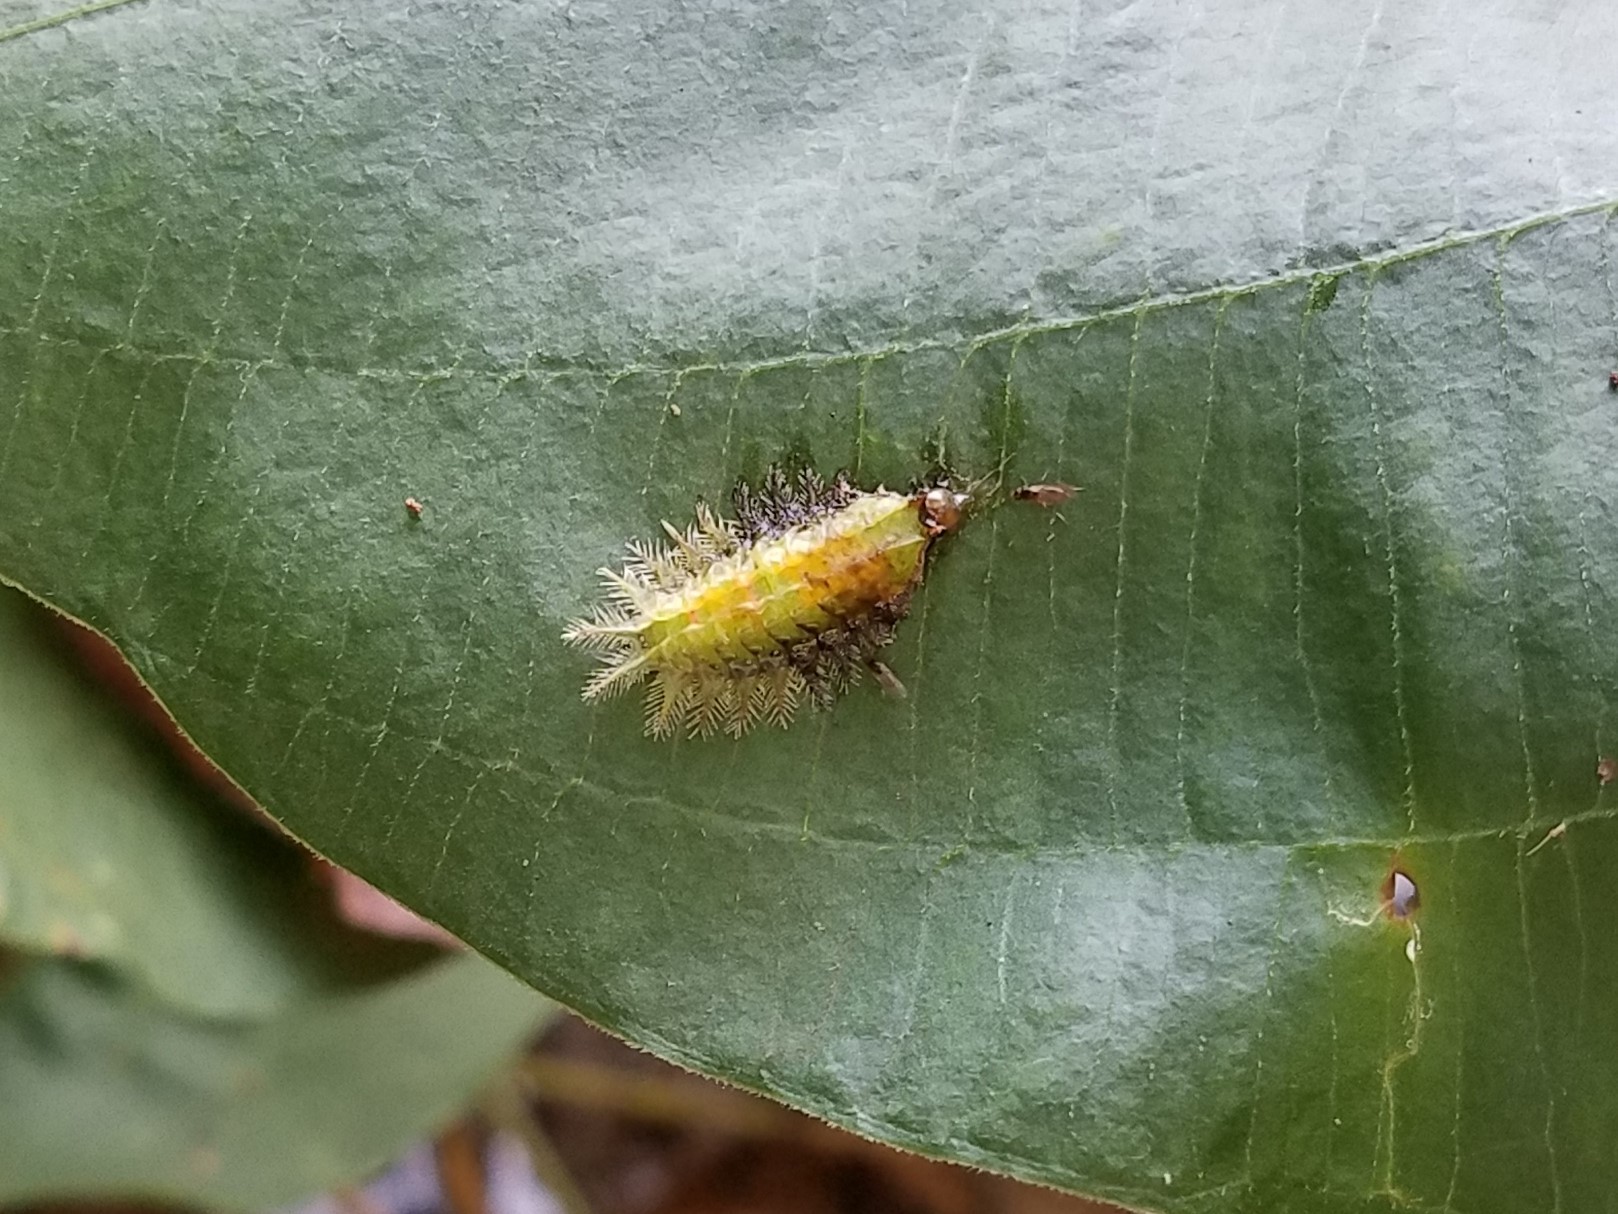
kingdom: Animalia
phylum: Arthropoda
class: Insecta
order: Lepidoptera
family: Limacodidae
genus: Isa
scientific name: Isa textula
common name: Crowned slug moth
